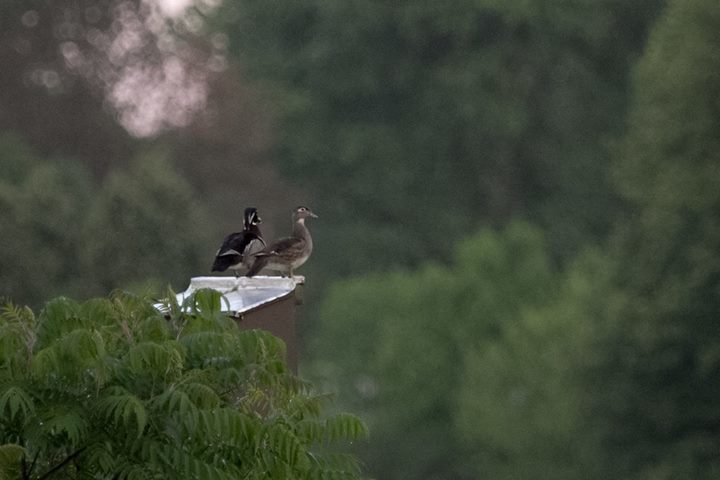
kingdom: Animalia
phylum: Chordata
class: Aves
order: Anseriformes
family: Anatidae
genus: Aix
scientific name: Aix sponsa
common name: Wood duck
